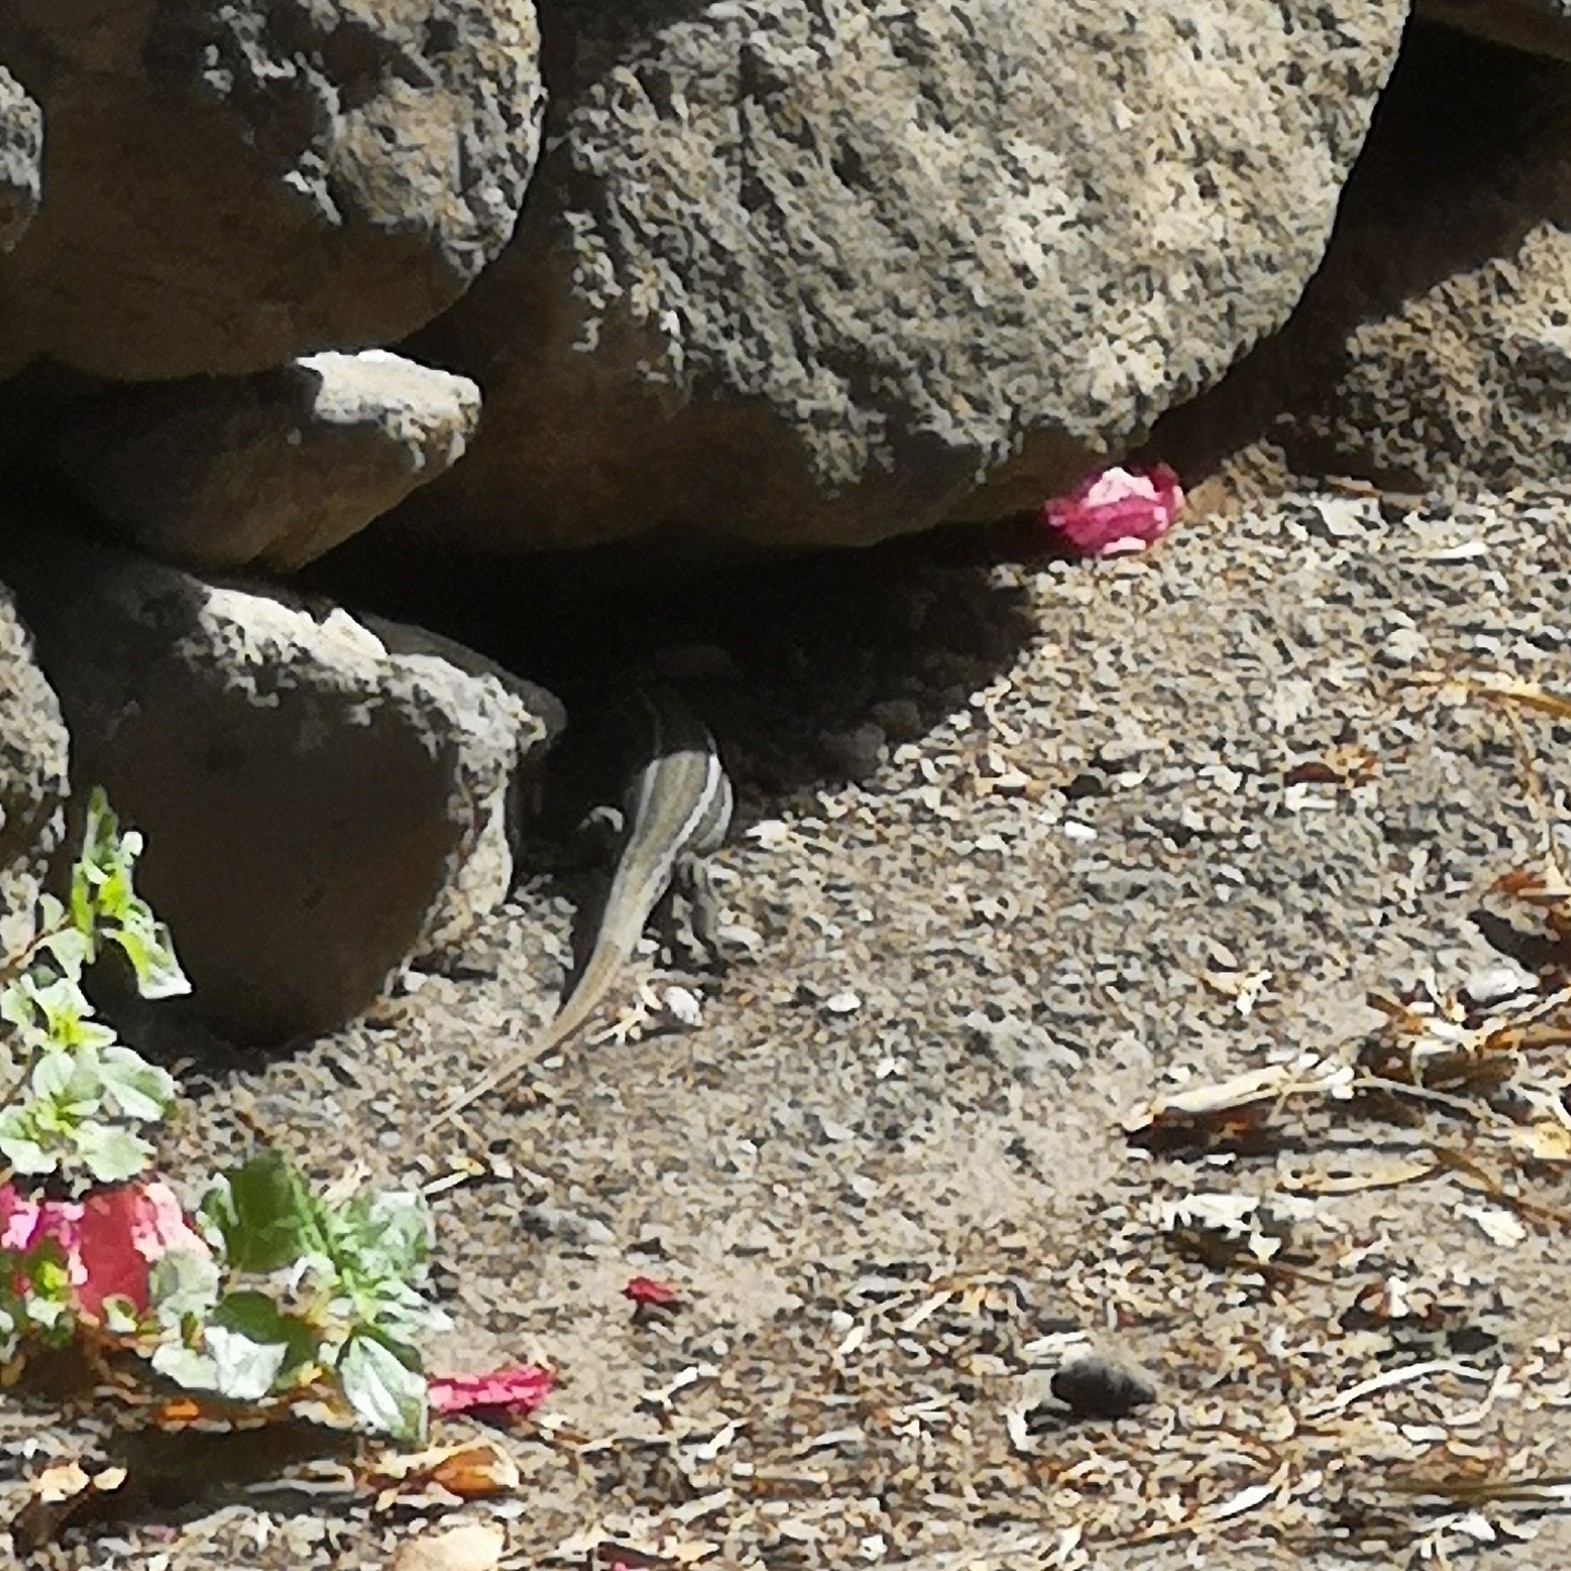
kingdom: Animalia
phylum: Chordata
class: Squamata
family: Lacertidae
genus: Gallotia
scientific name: Gallotia galloti
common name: Gallot's lizard
